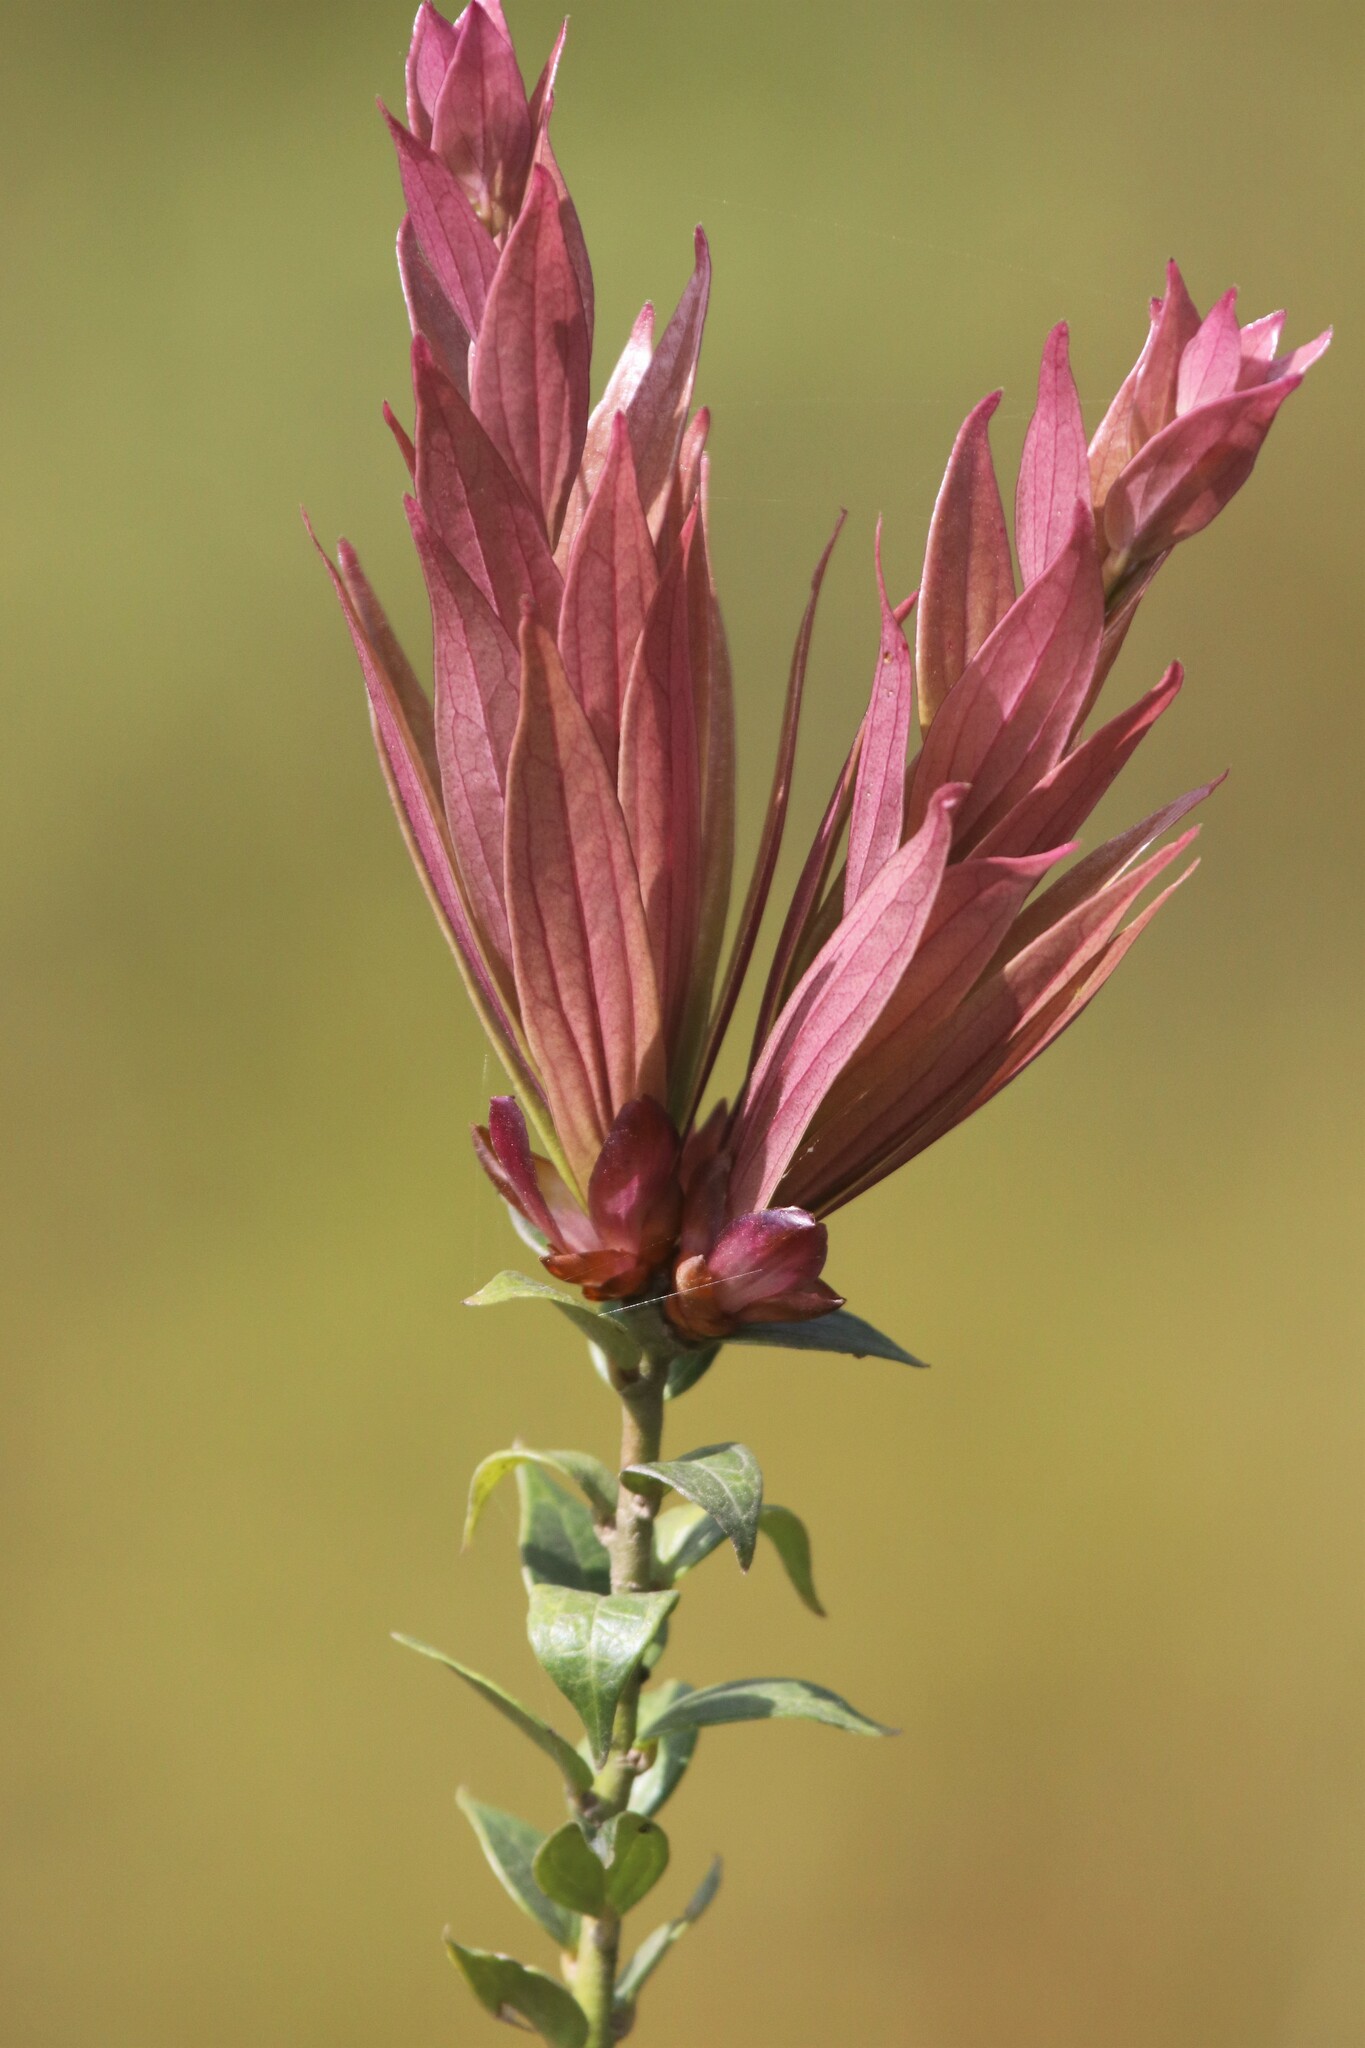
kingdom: Plantae
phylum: Tracheophyta
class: Magnoliopsida
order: Lamiales
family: Acanthaceae
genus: Megaskepasma
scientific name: Megaskepasma erythrochlamys
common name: Brazilian red-cloak
